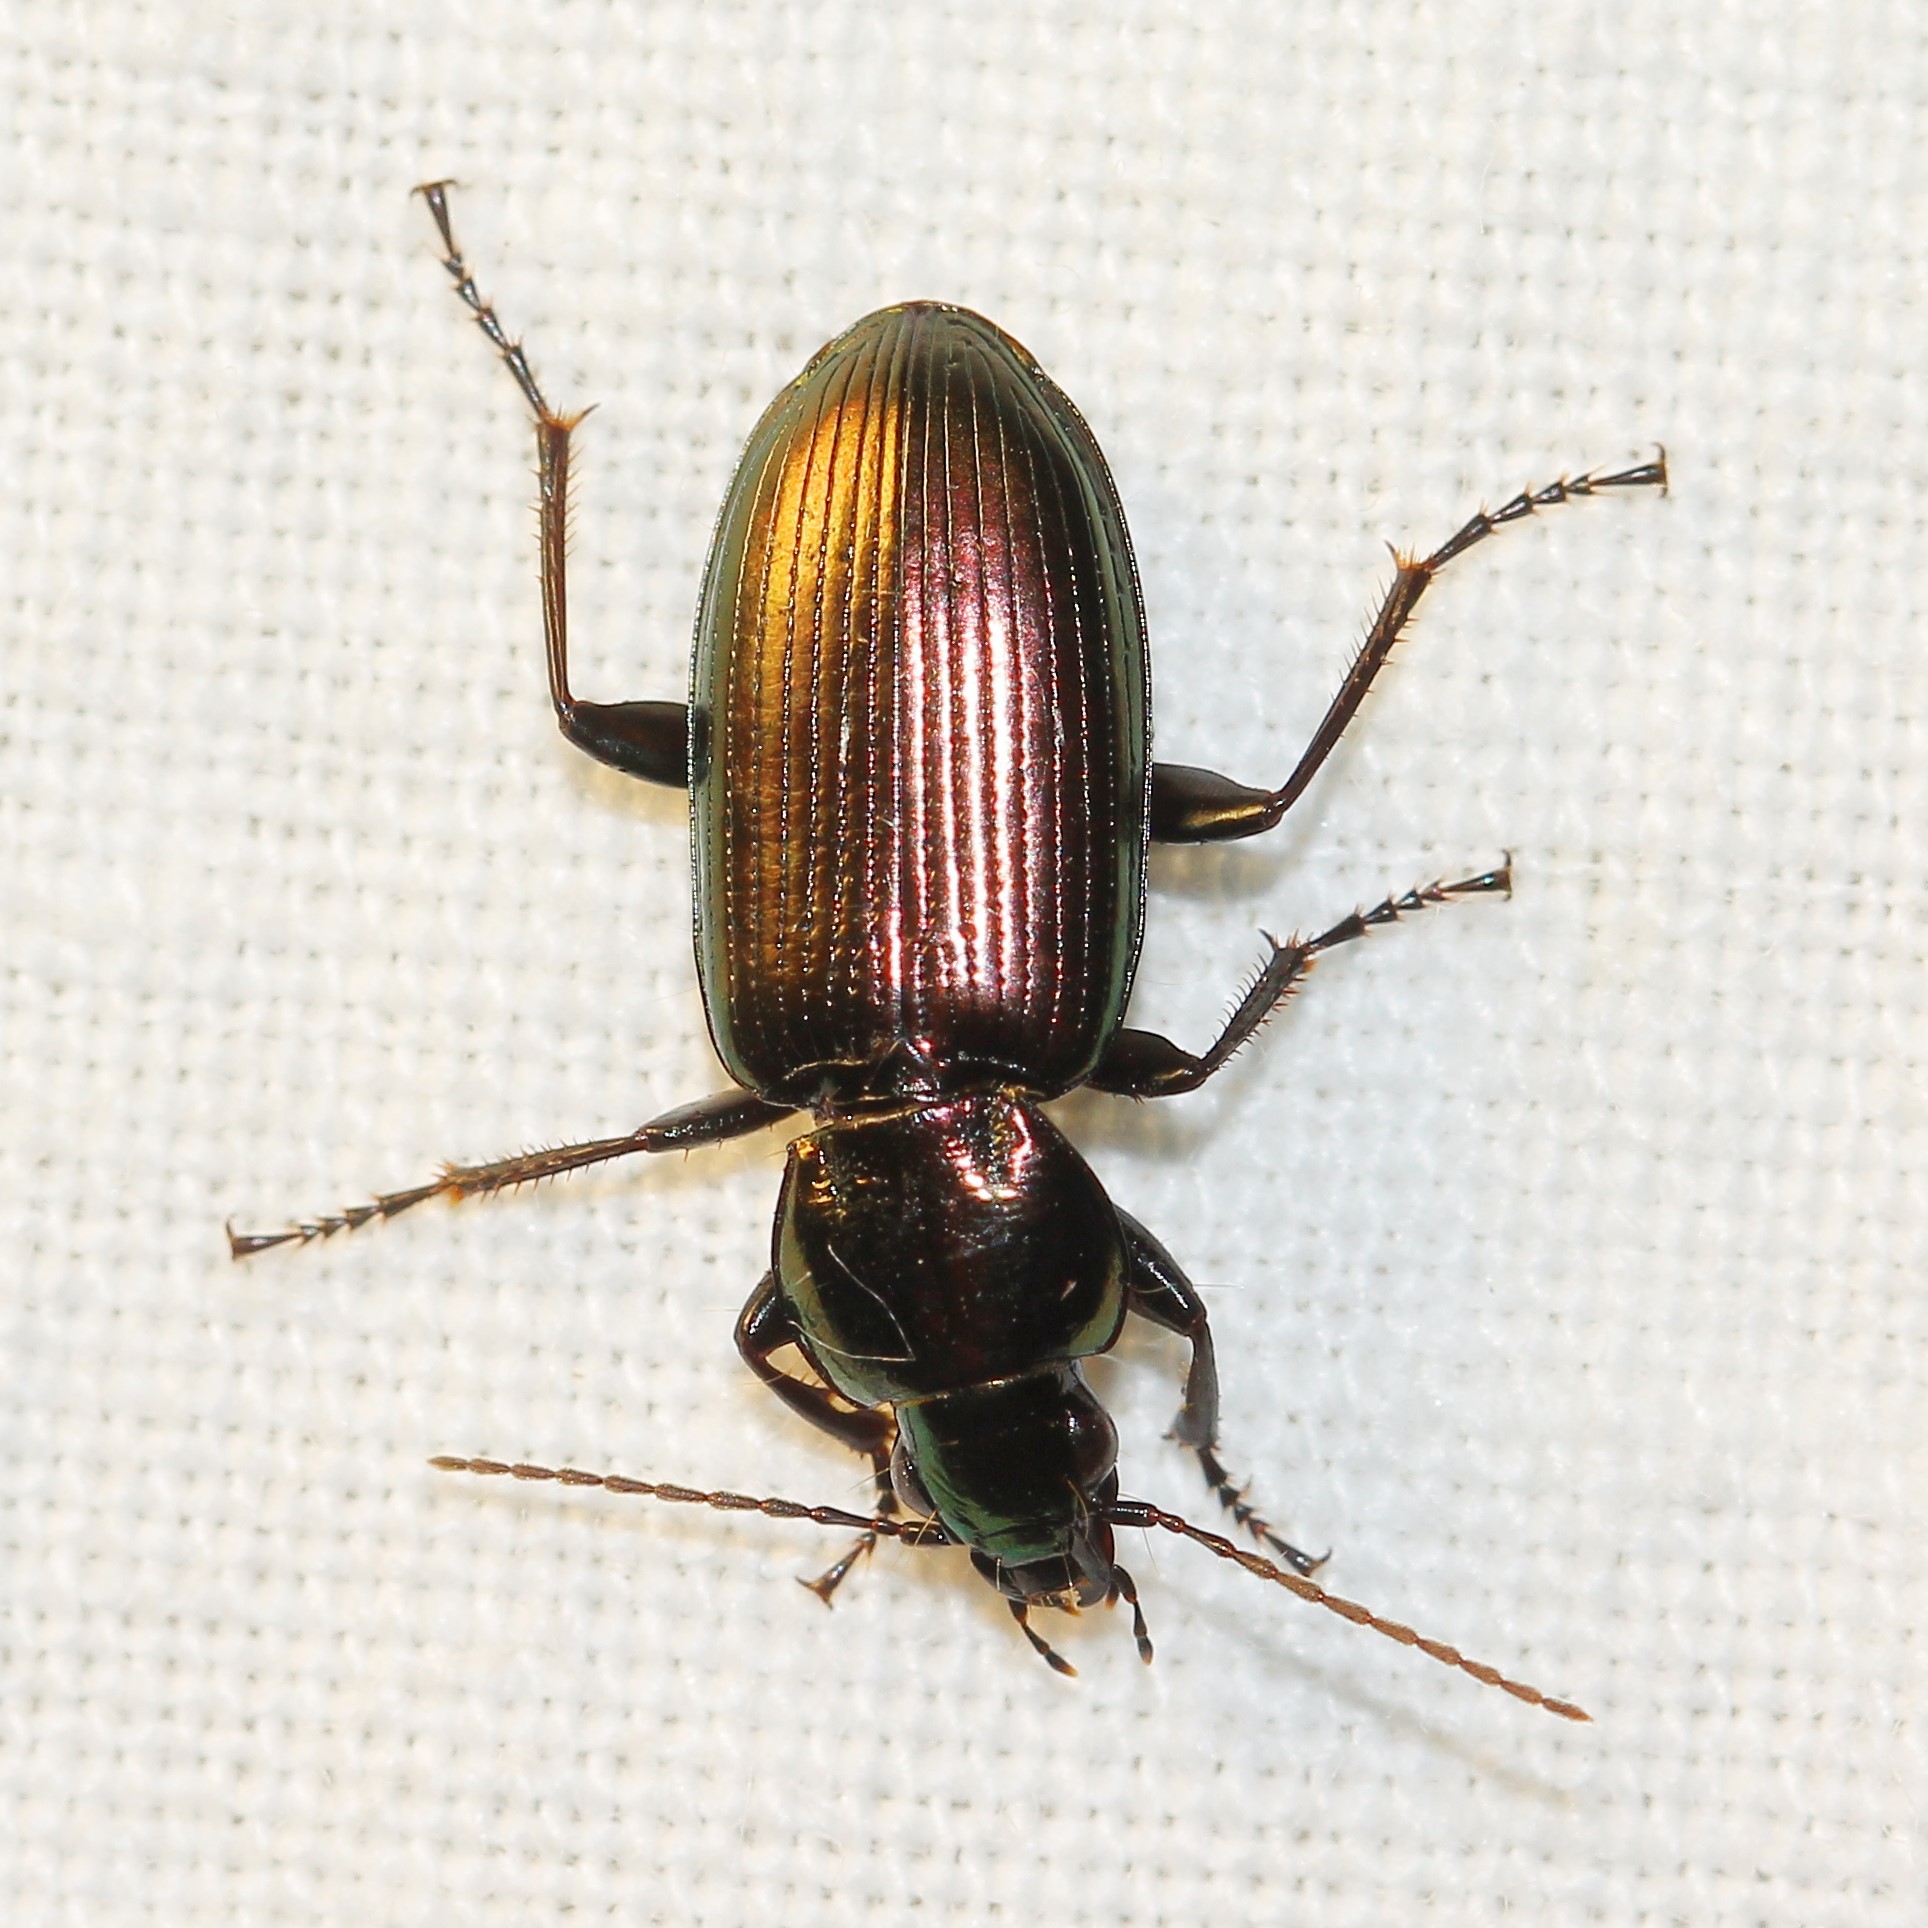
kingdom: Animalia
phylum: Arthropoda
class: Insecta
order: Coleoptera
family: Carabidae
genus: Poecilus
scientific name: Poecilus nitens
